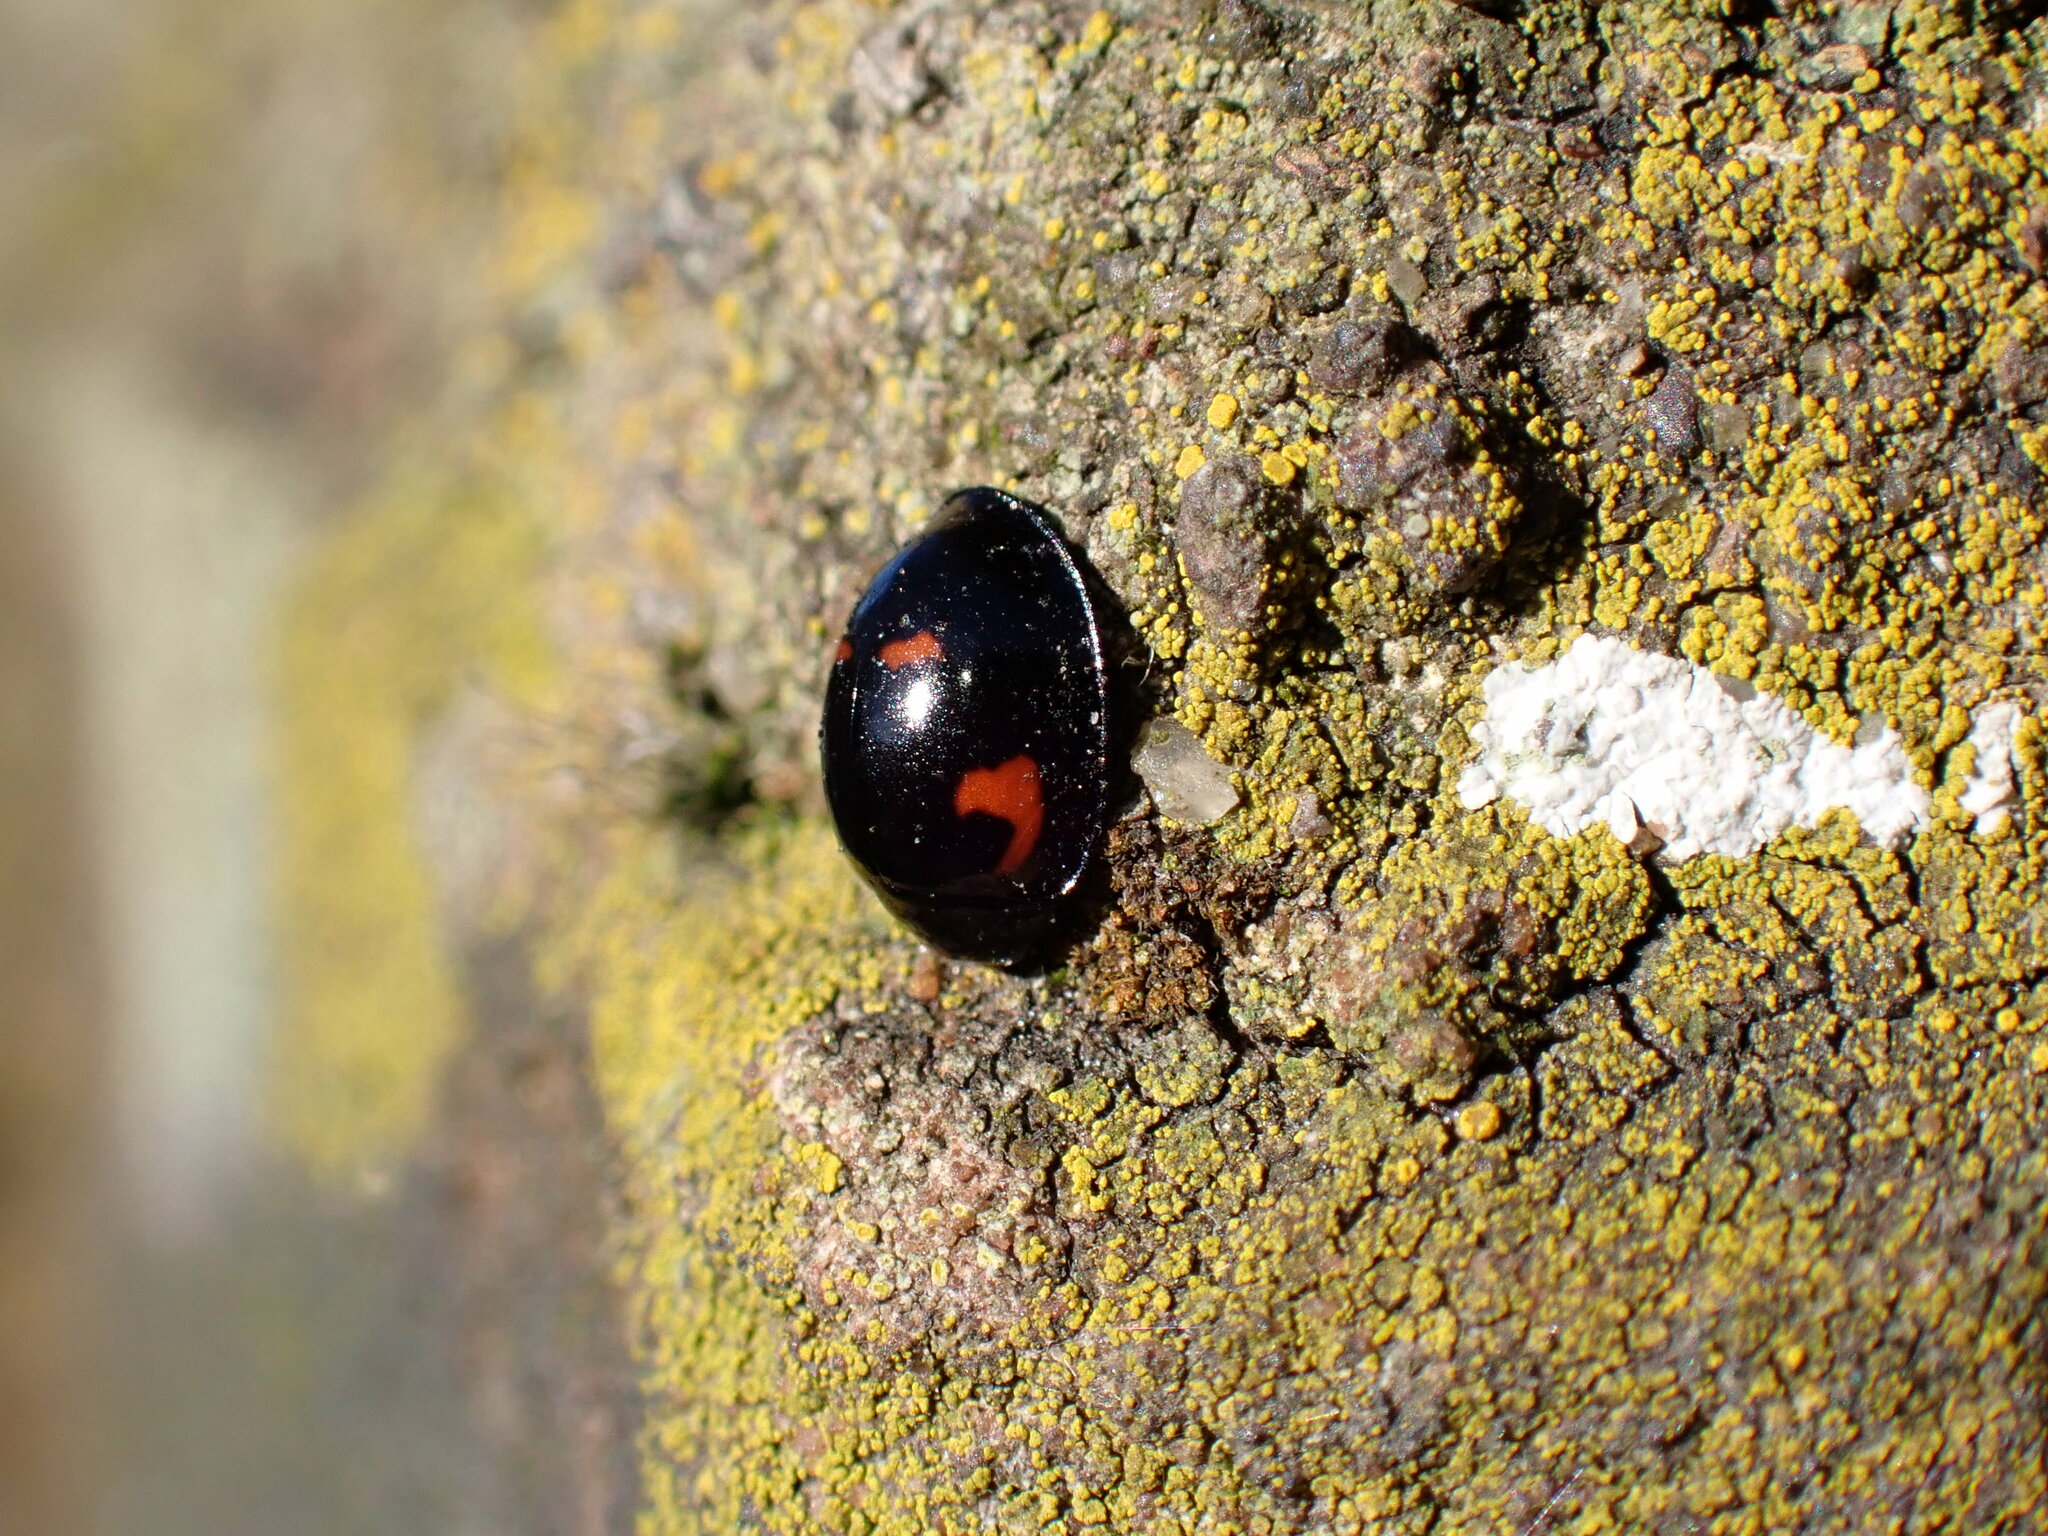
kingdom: Animalia
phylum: Arthropoda
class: Insecta
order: Coleoptera
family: Coccinellidae
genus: Brumus
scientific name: Brumus quadripustulatus
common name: Ladybird beetle
